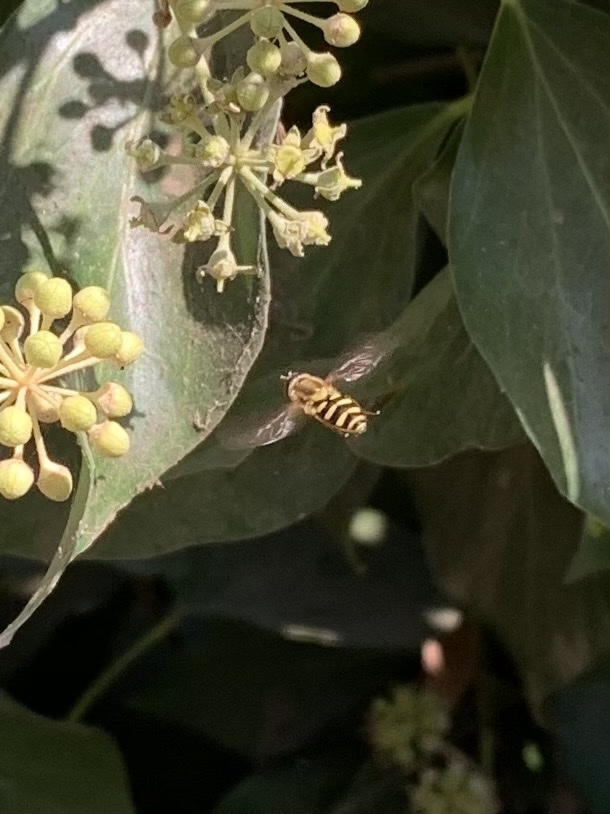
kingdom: Animalia
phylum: Arthropoda
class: Insecta
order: Diptera
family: Syrphidae
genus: Syrphus
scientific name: Syrphus opinator
